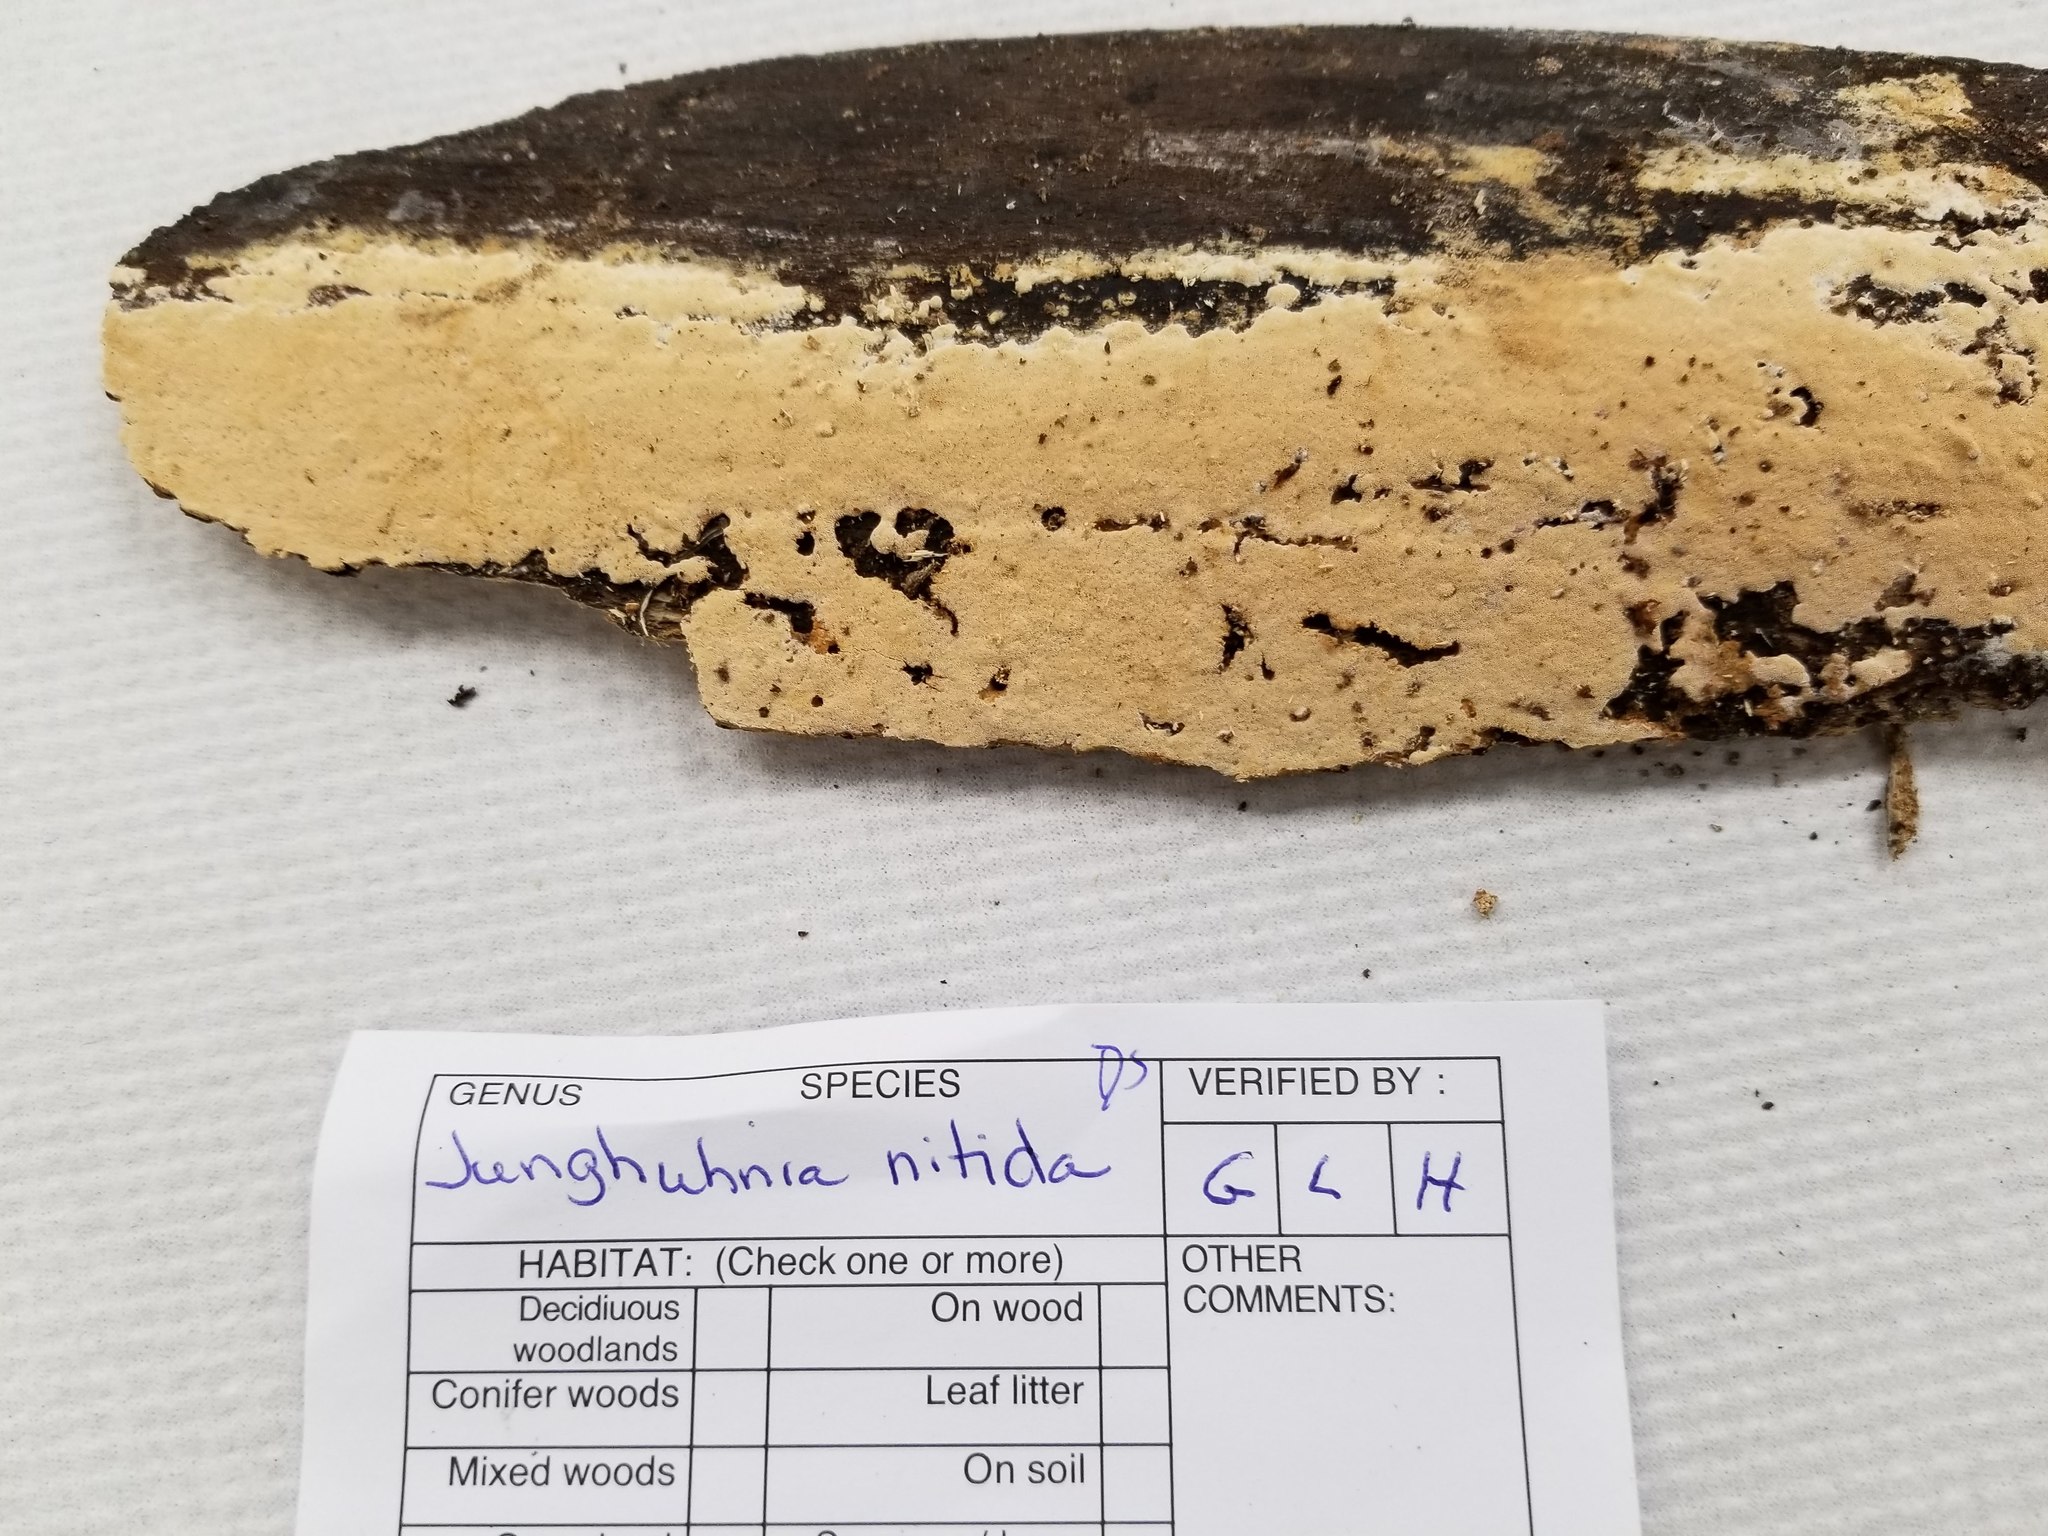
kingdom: Fungi
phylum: Basidiomycota
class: Agaricomycetes
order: Polyporales
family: Steccherinaceae
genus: Junghuhnia
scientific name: Junghuhnia nitida
